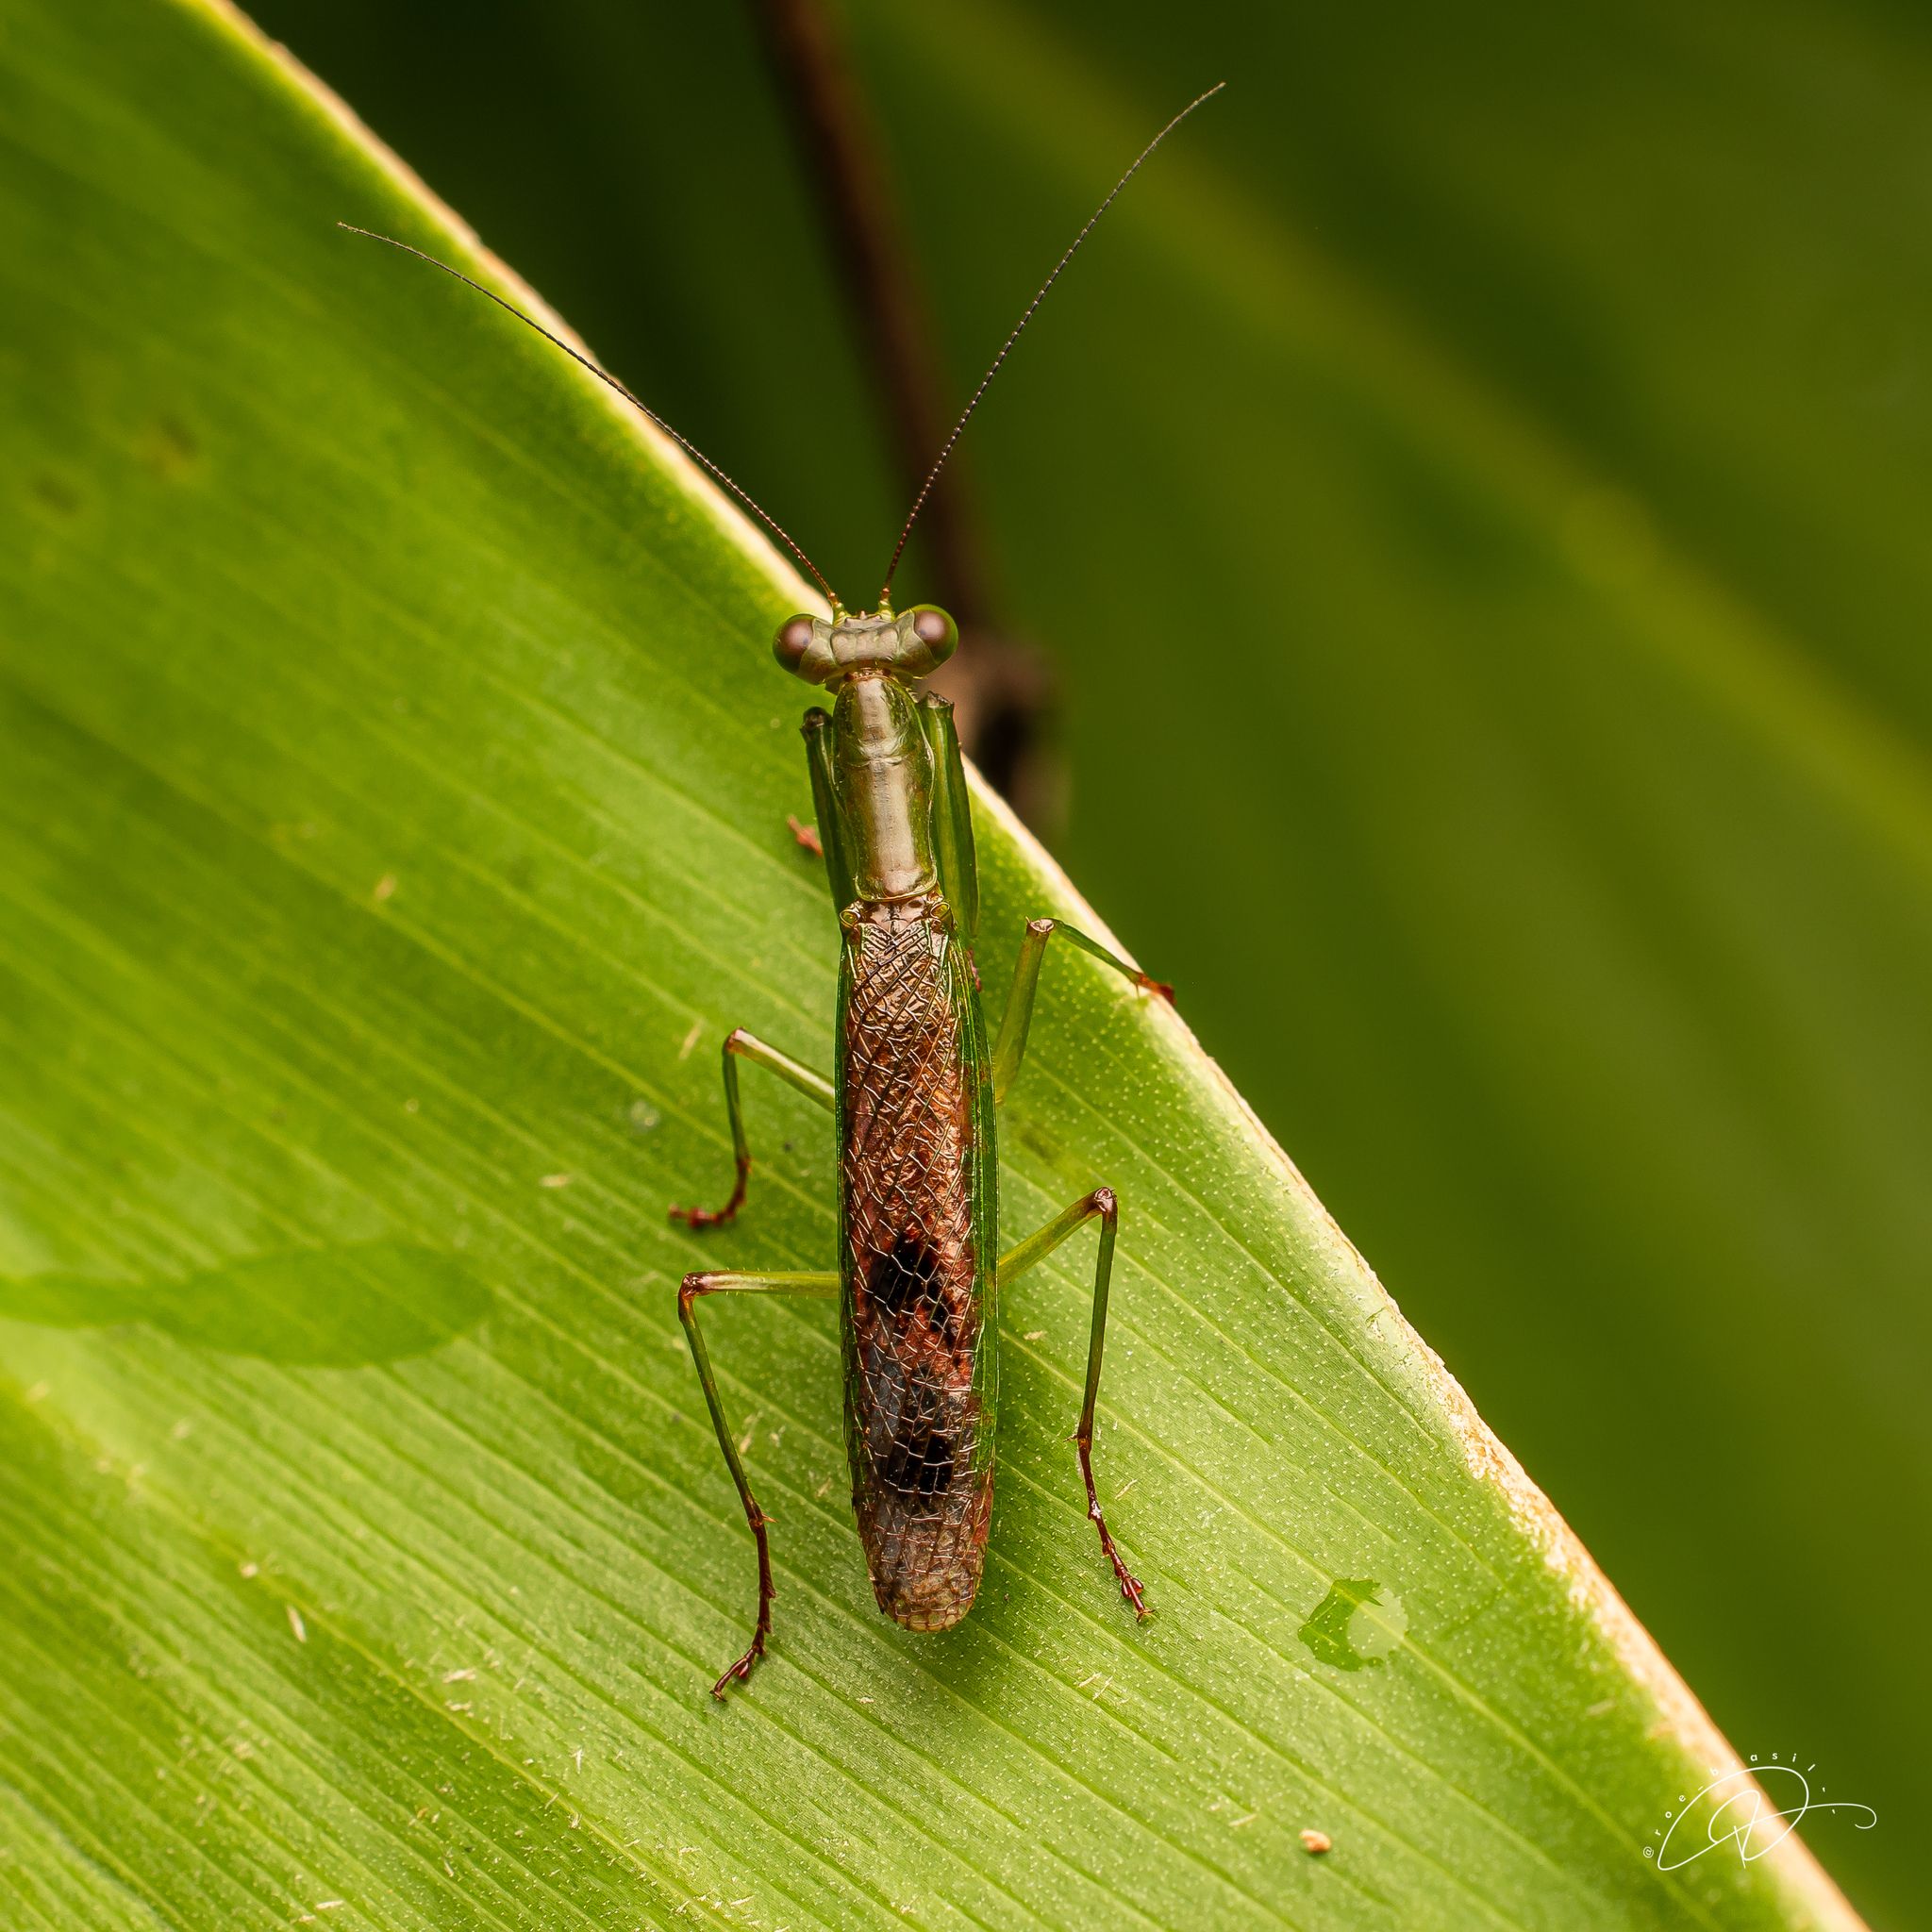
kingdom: Animalia
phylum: Arthropoda
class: Insecta
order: Mantodea
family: Acanthopidae
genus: Acontista
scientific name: Acontista concinna
